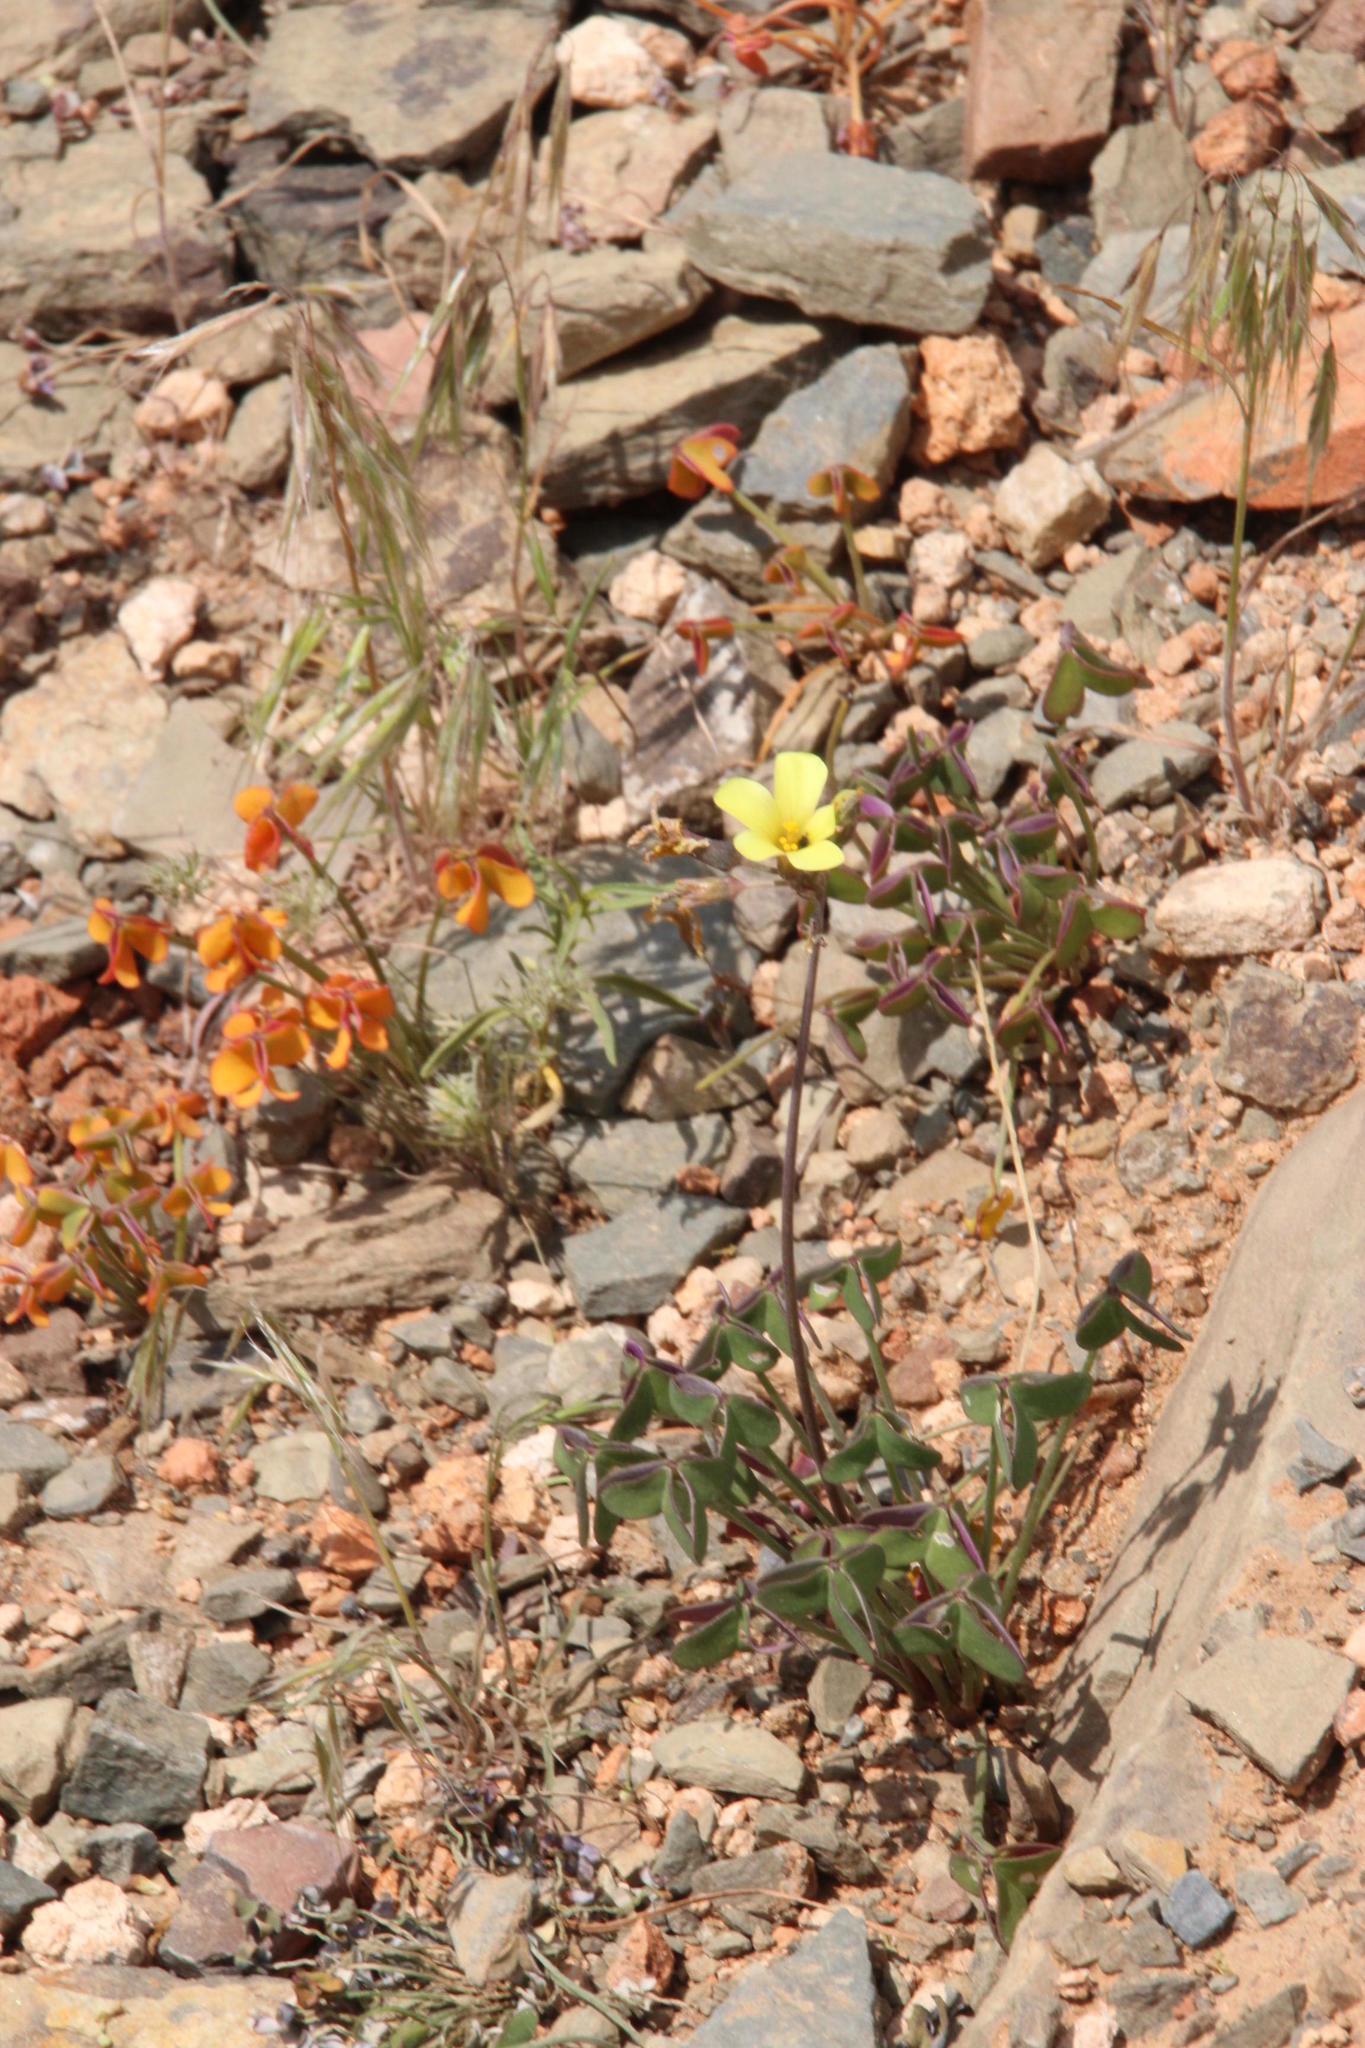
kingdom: Plantae
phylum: Tracheophyta
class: Magnoliopsida
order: Oxalidales
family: Oxalidaceae
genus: Oxalis
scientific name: Oxalis pes-caprae
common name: Bermuda-buttercup
